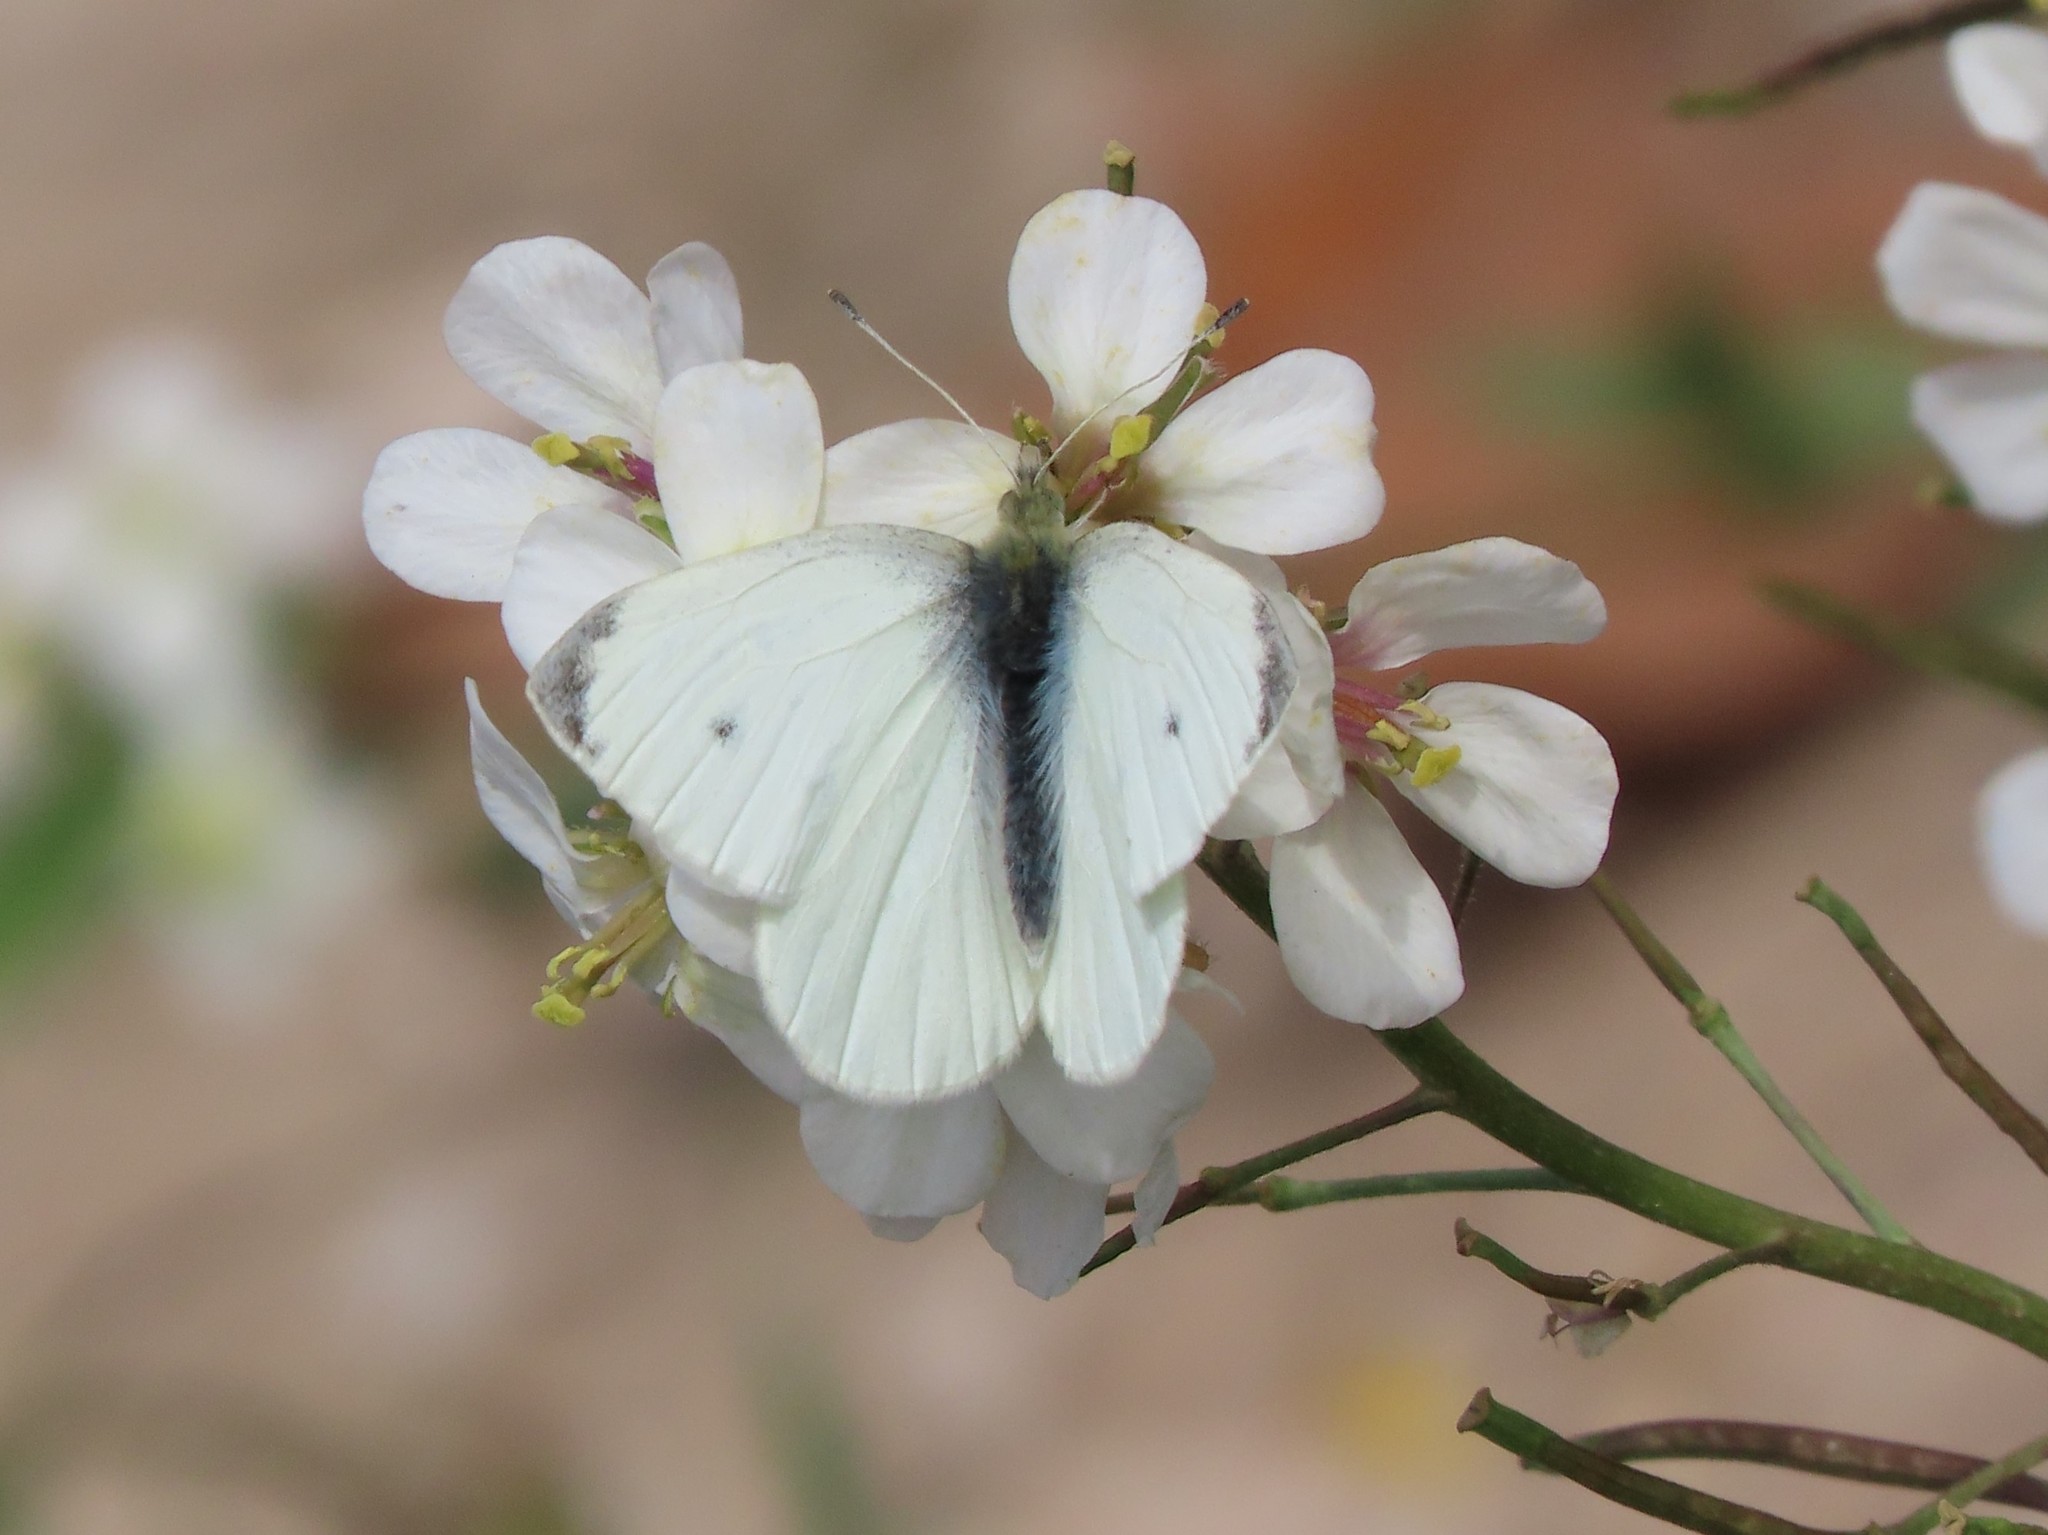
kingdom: Animalia
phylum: Arthropoda
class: Insecta
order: Lepidoptera
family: Pieridae
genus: Pieris
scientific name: Pieris rapae
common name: Small white
